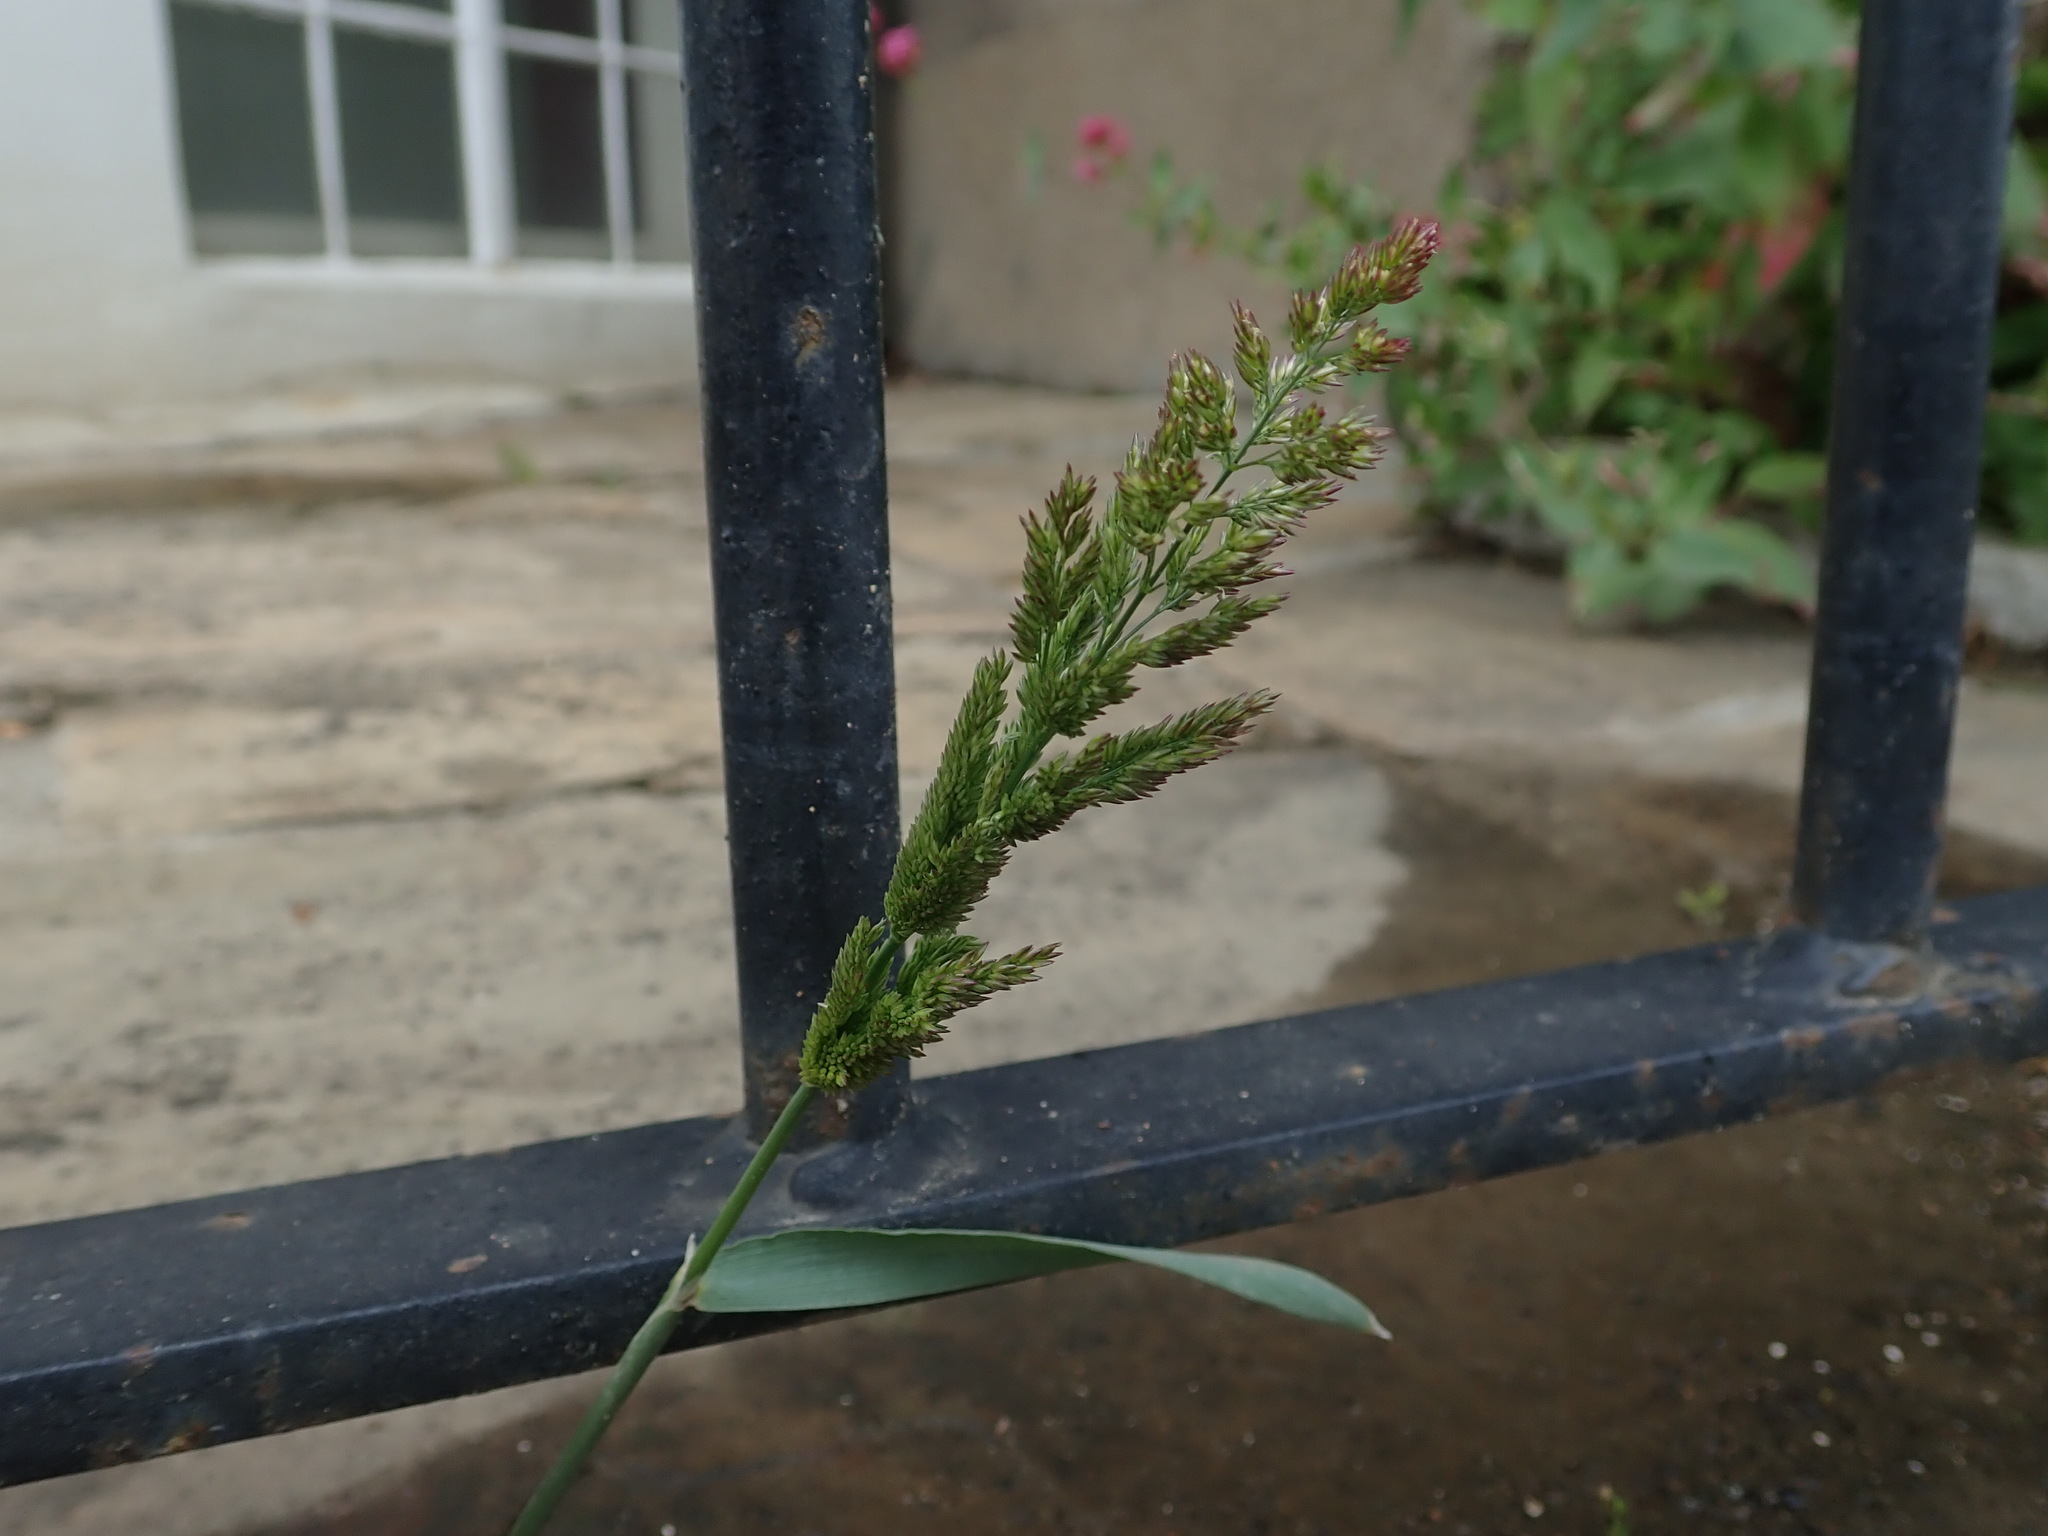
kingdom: Plantae
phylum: Tracheophyta
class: Liliopsida
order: Poales
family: Poaceae
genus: Polypogon
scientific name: Polypogon viridis
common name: Water bent
